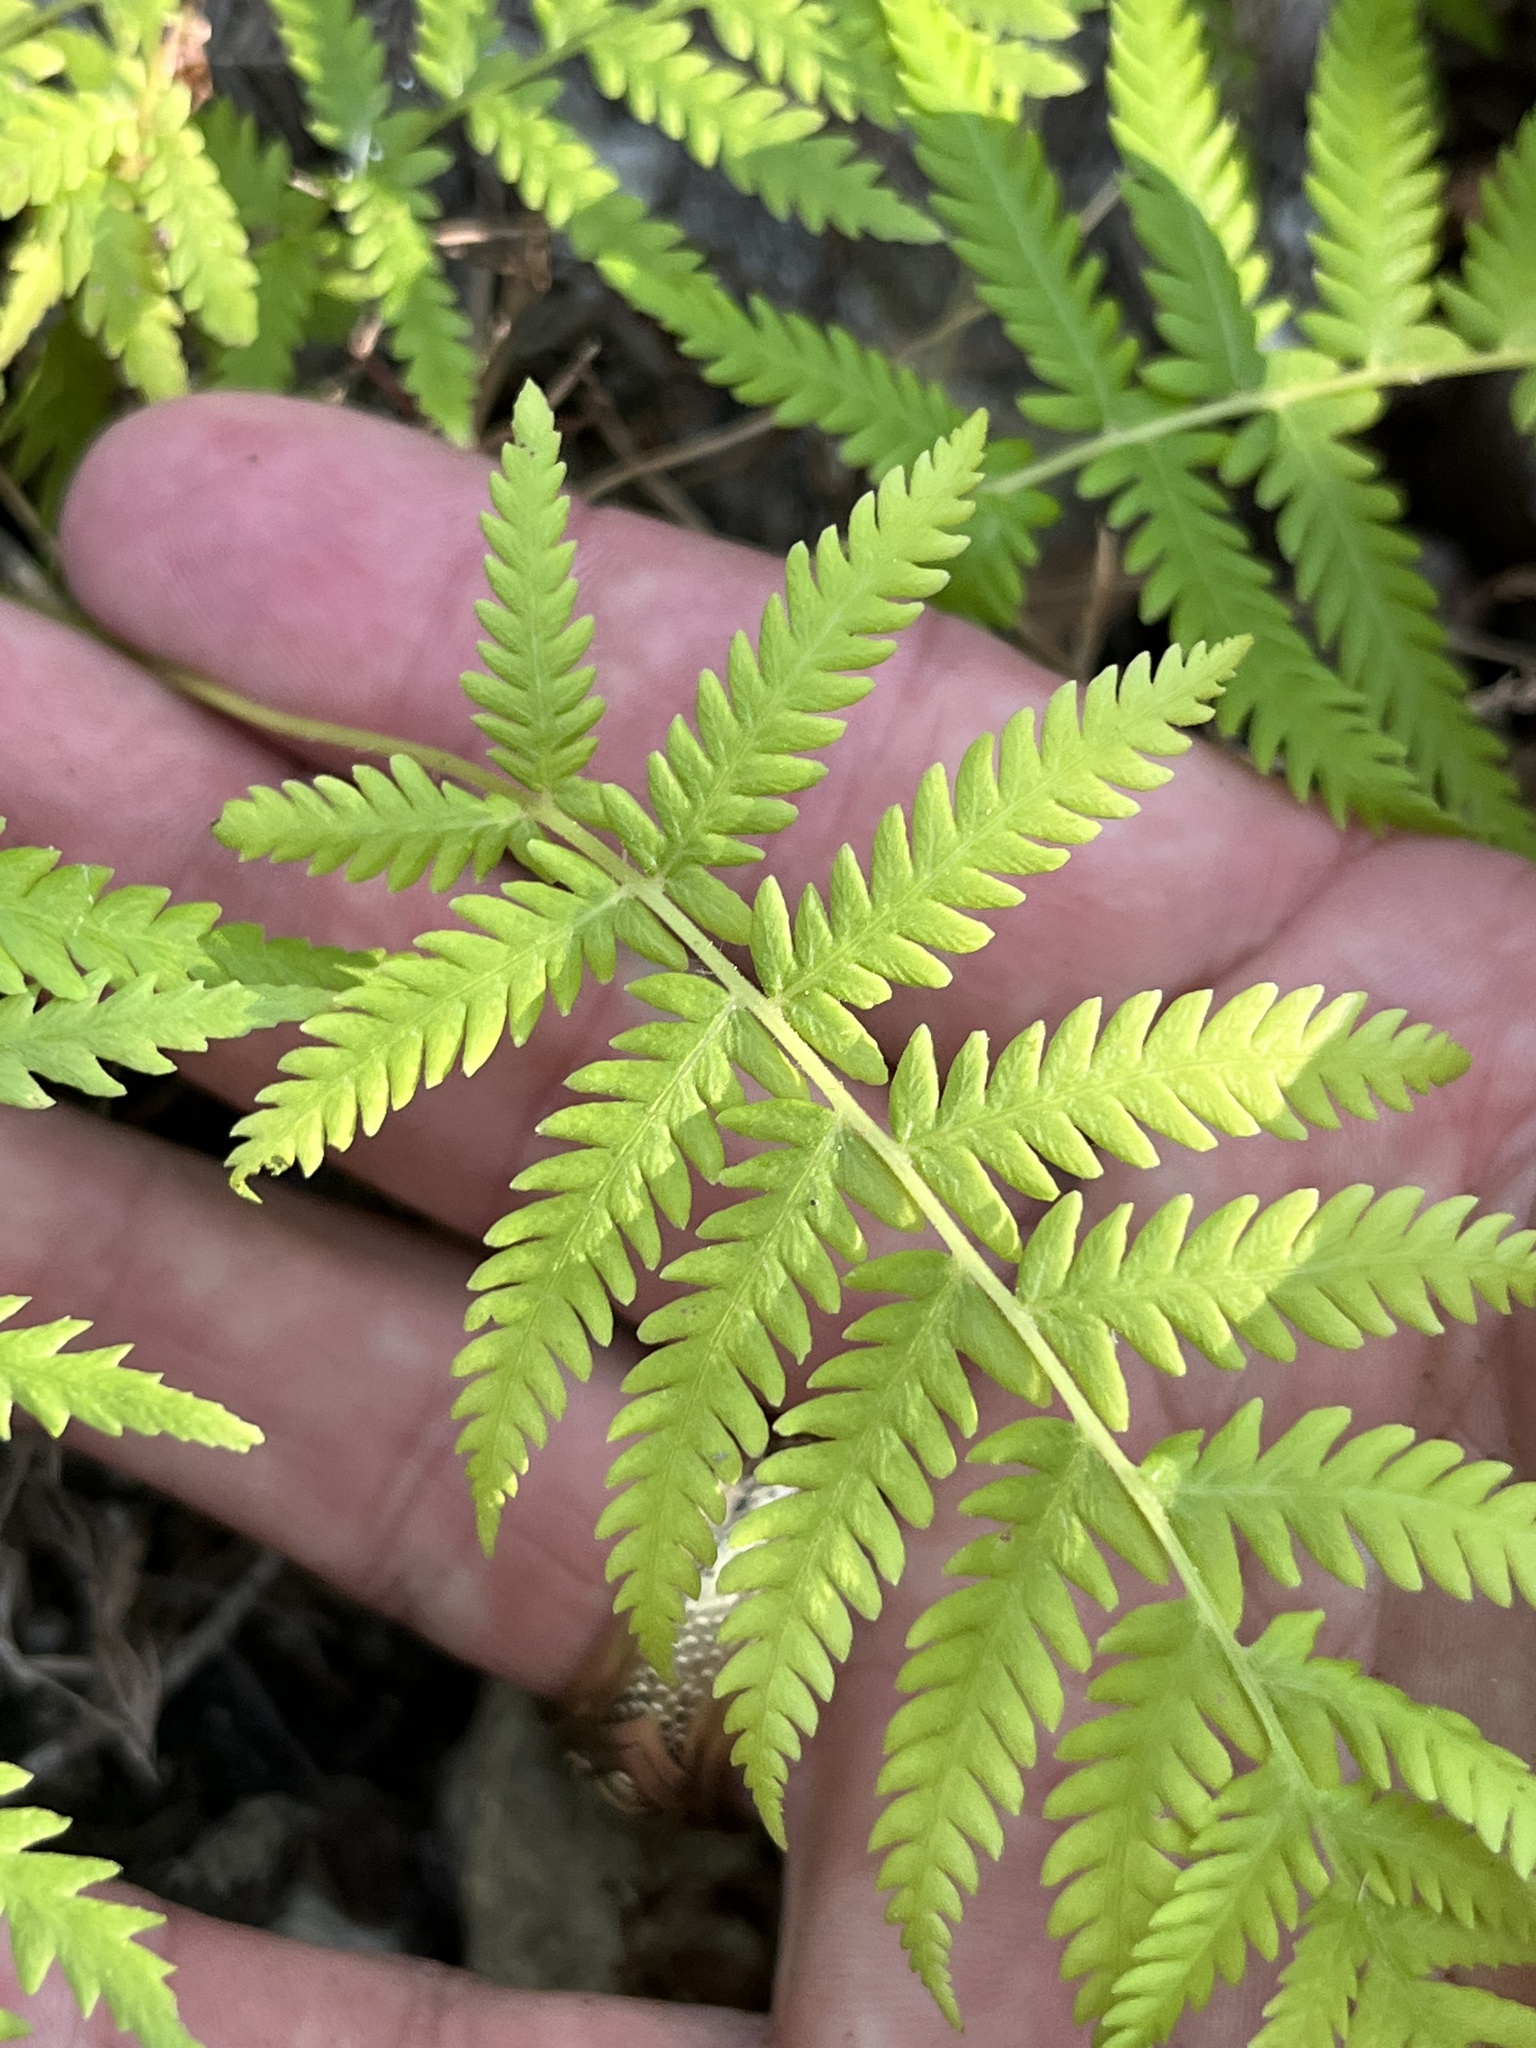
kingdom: Plantae
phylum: Tracheophyta
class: Polypodiopsida
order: Polypodiales
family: Thelypteridaceae
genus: Pelazoneuron
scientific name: Pelazoneuron ovatum
